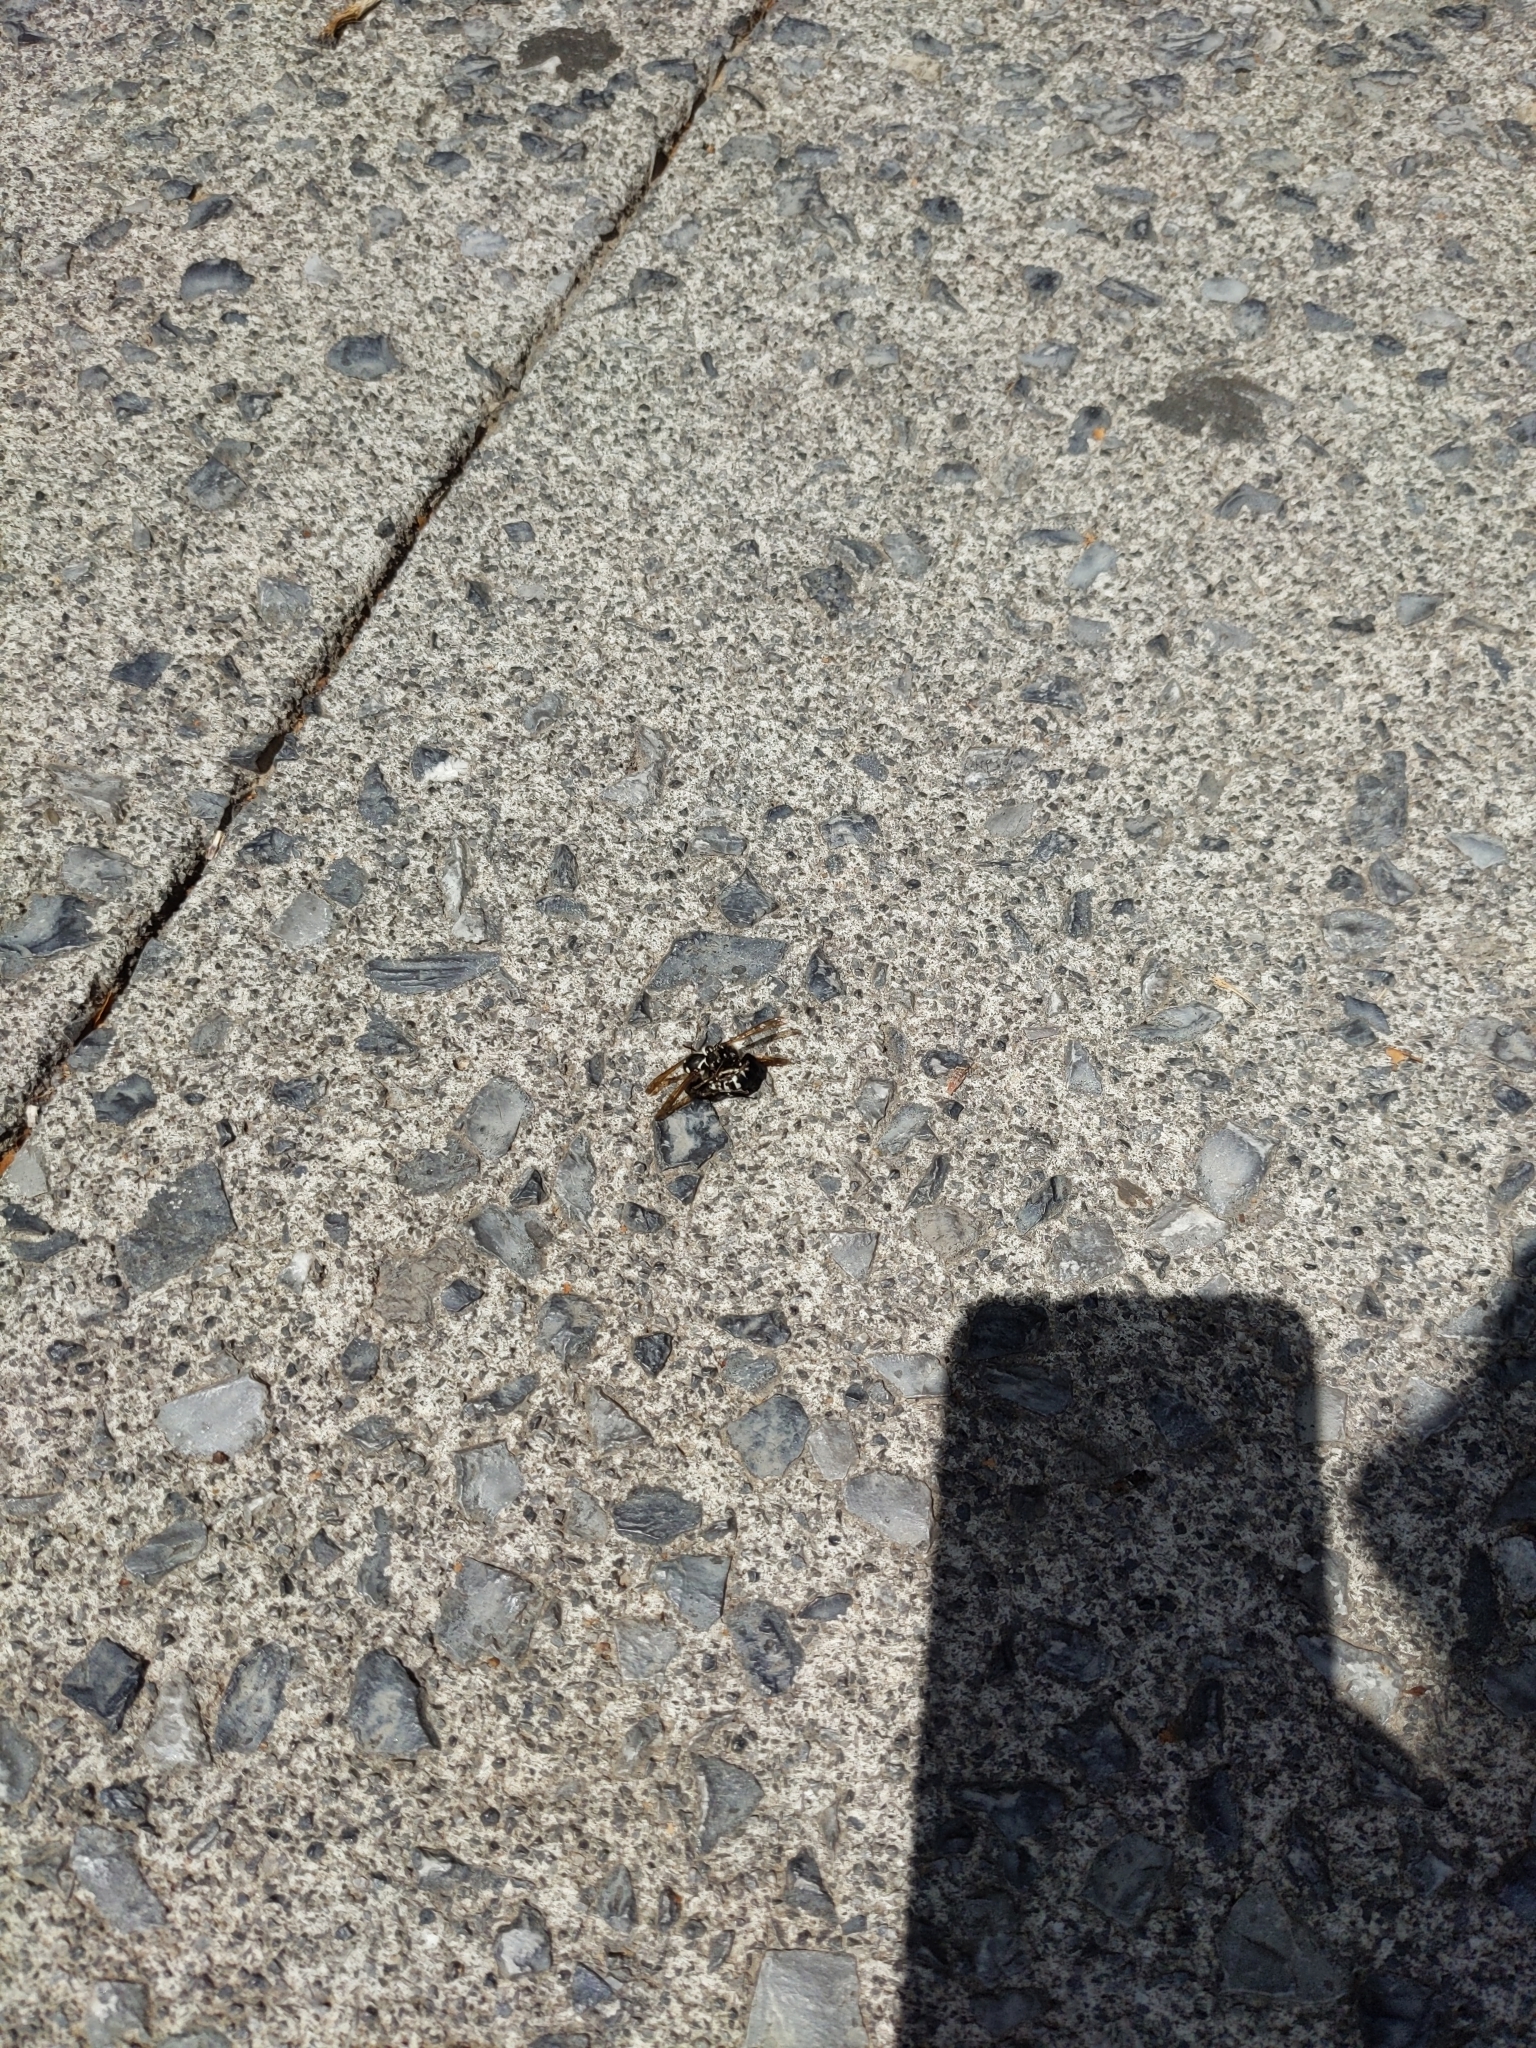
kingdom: Animalia
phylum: Arthropoda
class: Insecta
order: Hymenoptera
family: Vespidae
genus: Dolichovespula
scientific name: Dolichovespula maculata
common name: Bald-faced hornet
